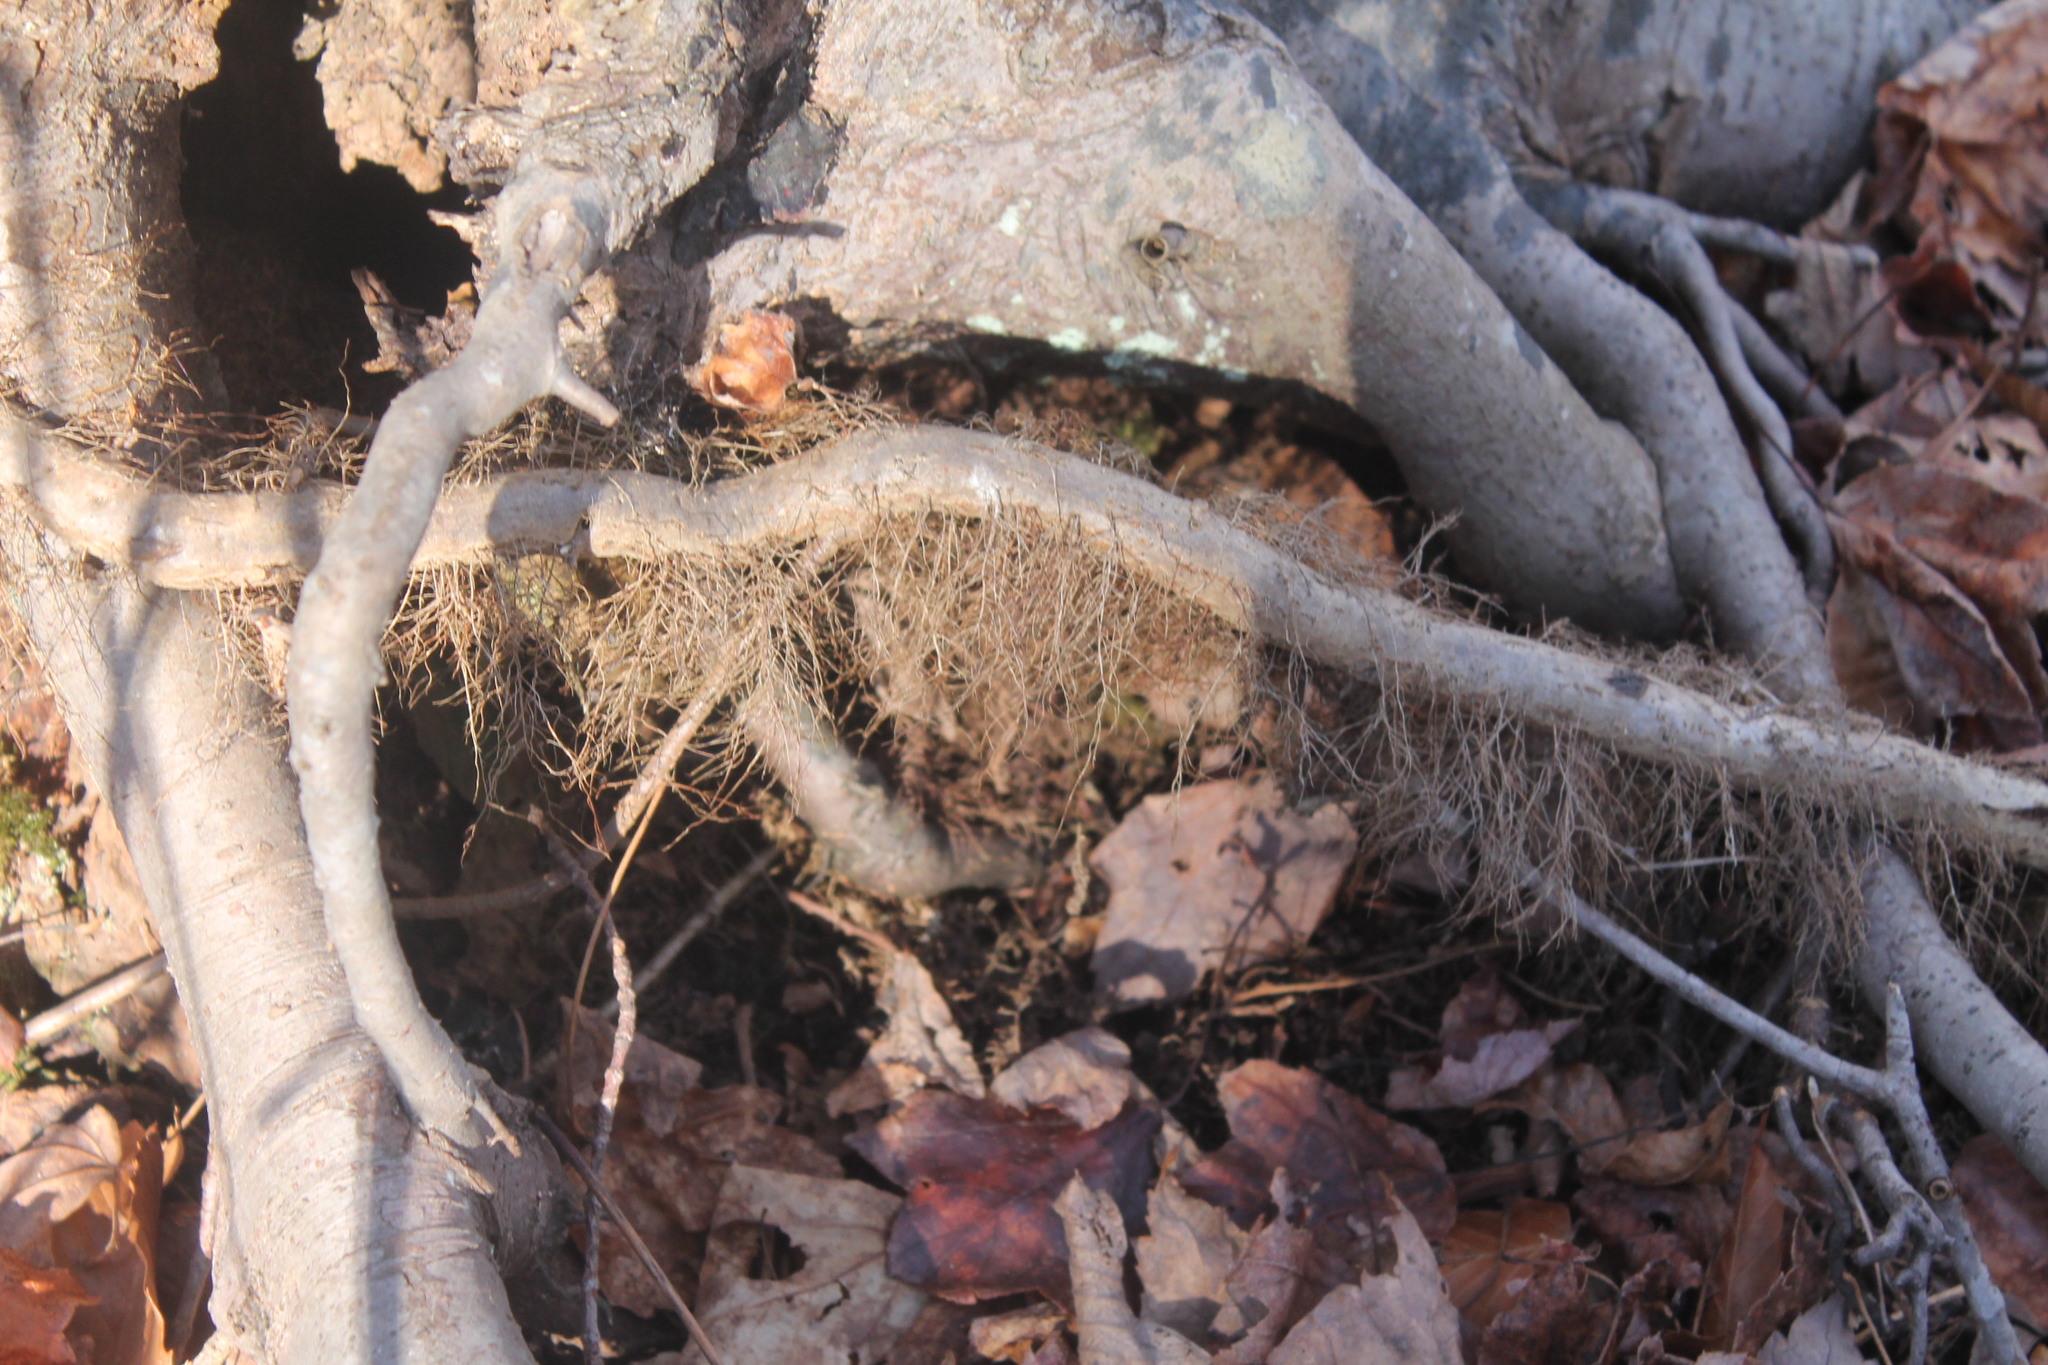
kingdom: Plantae
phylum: Tracheophyta
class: Magnoliopsida
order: Sapindales
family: Anacardiaceae
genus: Toxicodendron
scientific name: Toxicodendron radicans
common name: Poison ivy
